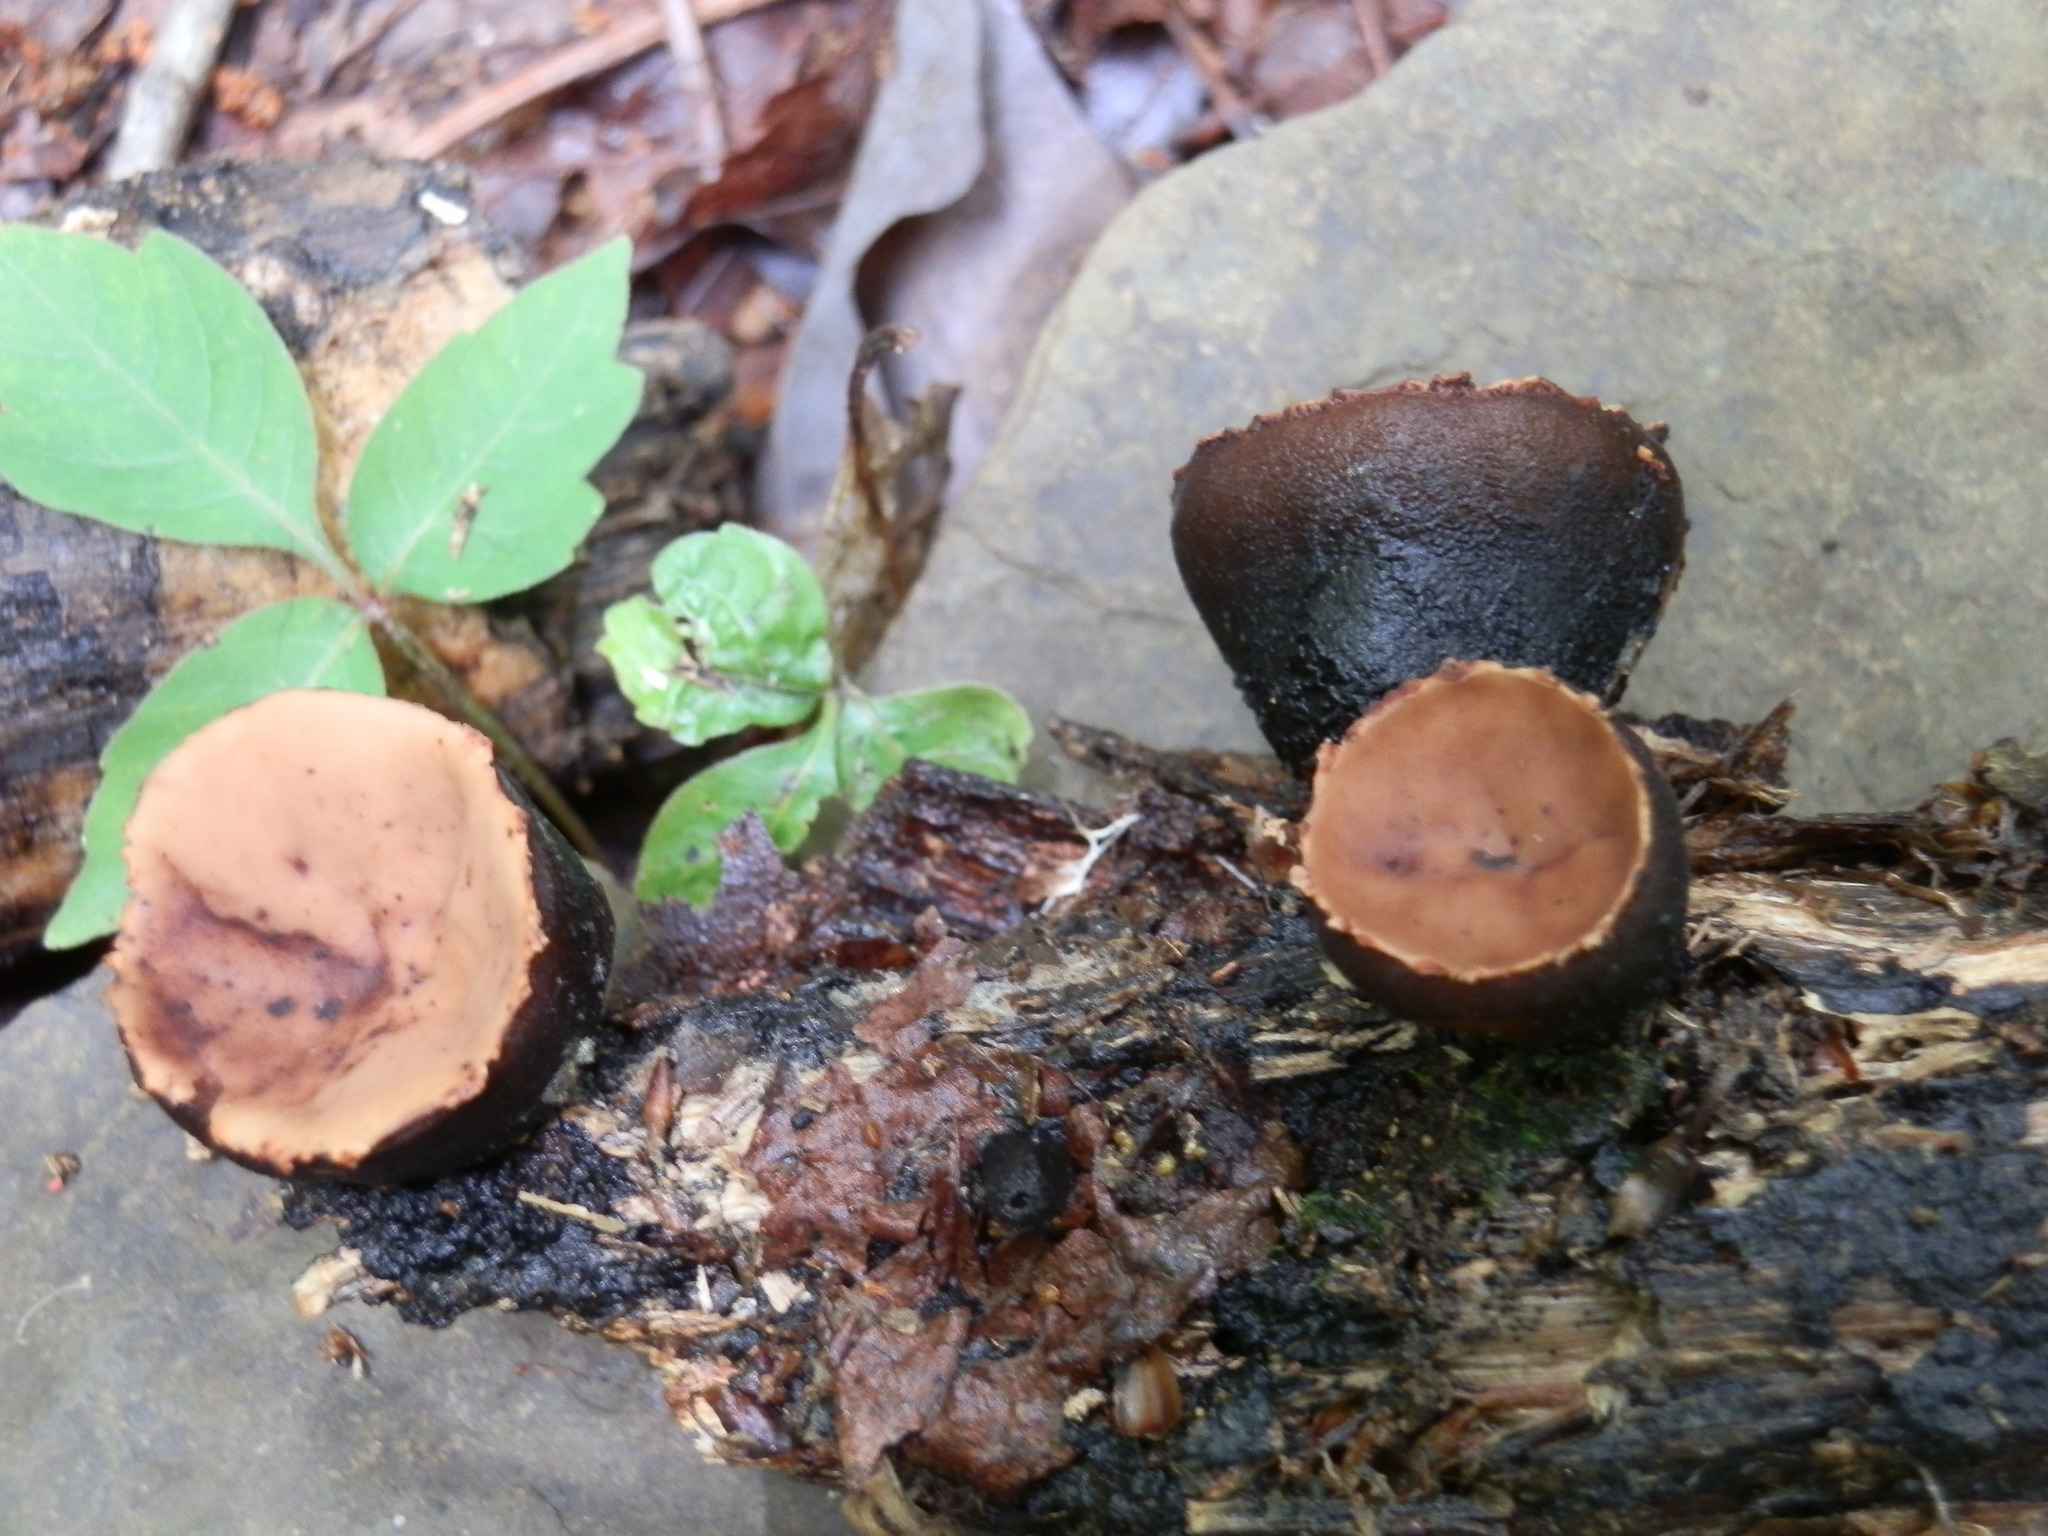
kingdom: Fungi
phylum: Ascomycota
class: Pezizomycetes
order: Pezizales
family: Sarcosomataceae
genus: Galiella
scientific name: Galiella rufa
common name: Hairy rubber cup
